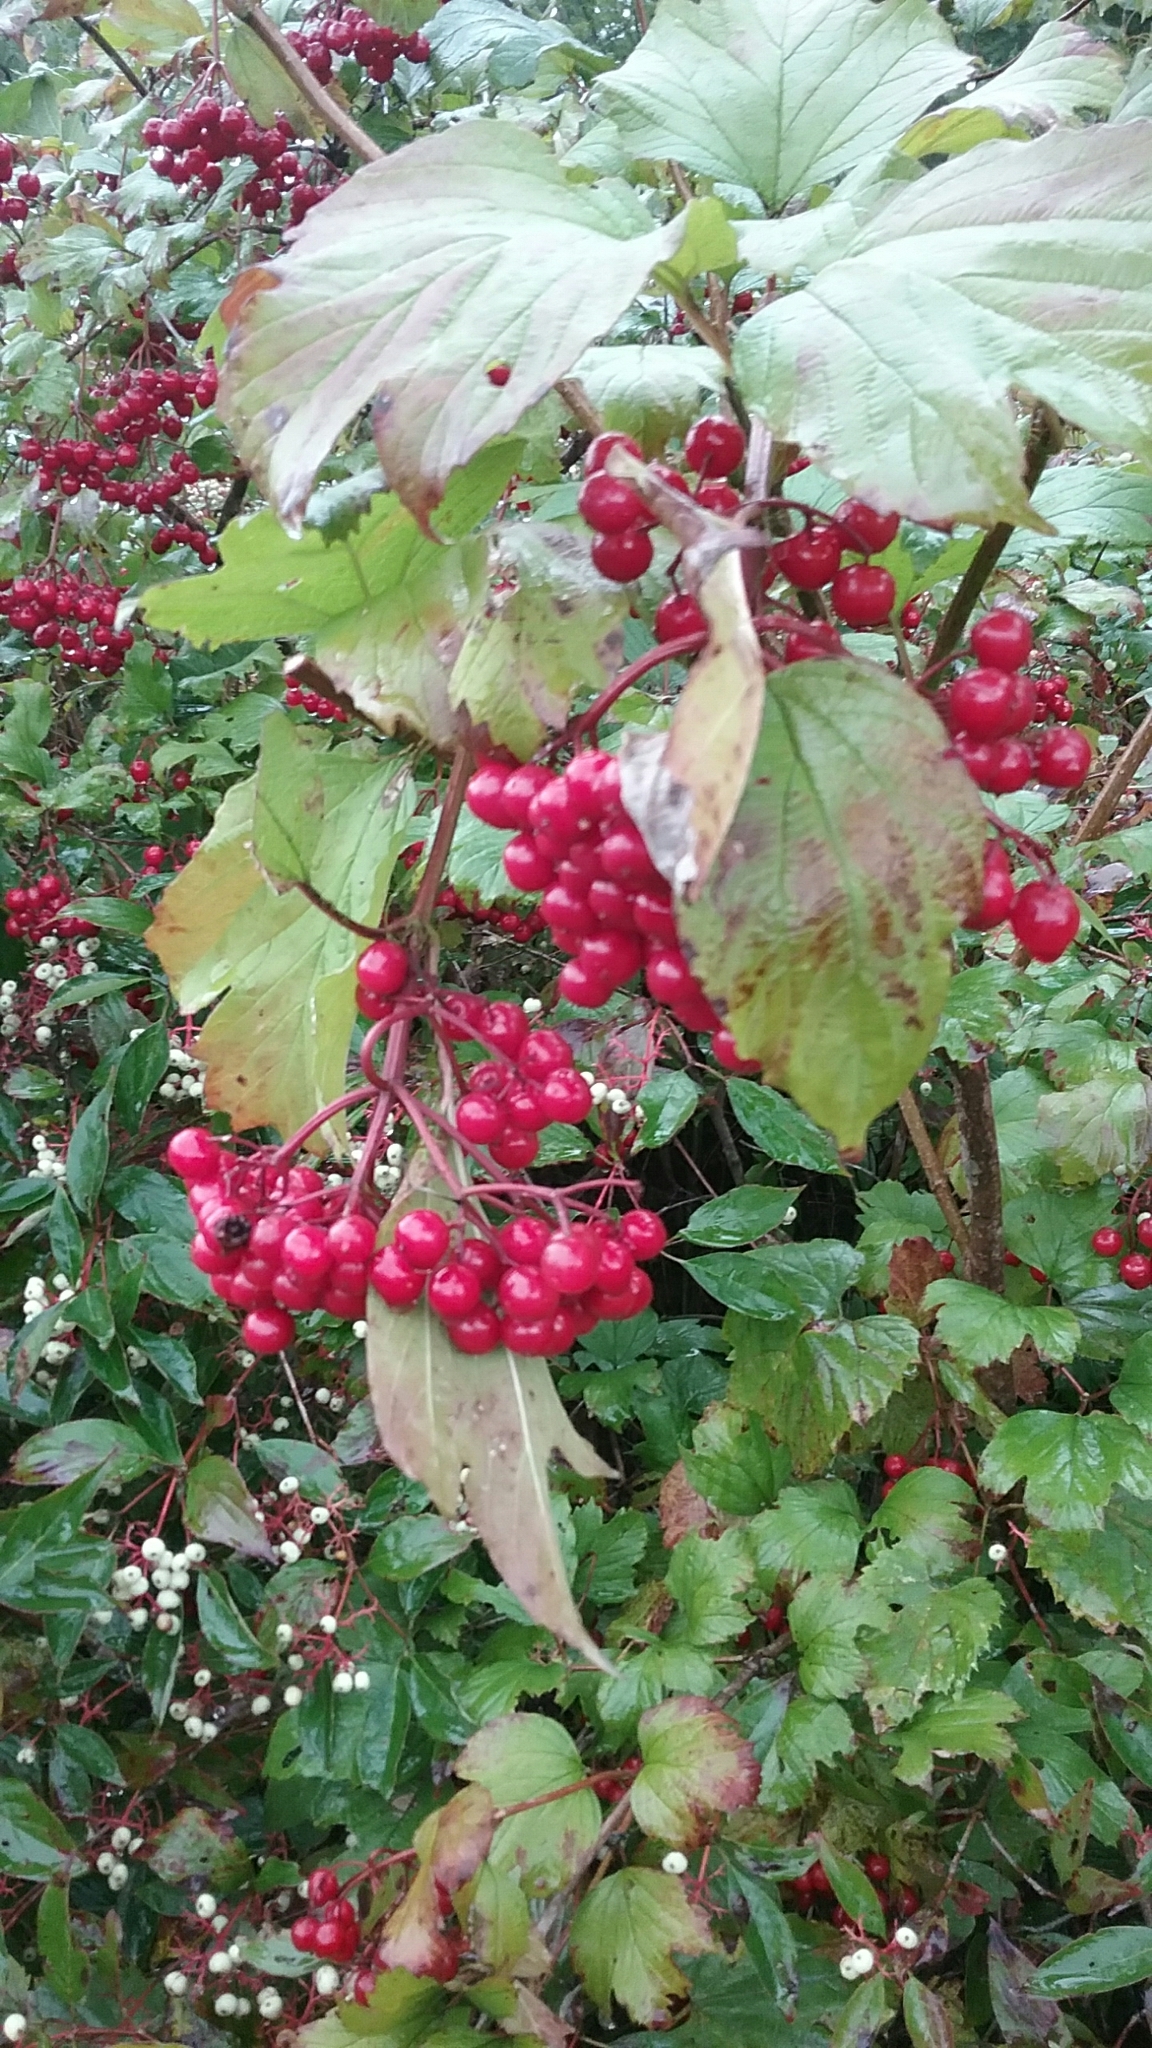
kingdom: Plantae
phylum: Tracheophyta
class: Magnoliopsida
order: Dipsacales
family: Viburnaceae
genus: Viburnum
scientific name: Viburnum opulus
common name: Guelder-rose
